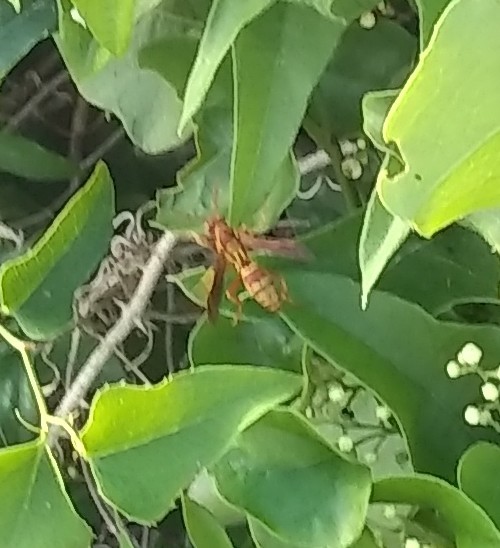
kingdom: Animalia
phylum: Arthropoda
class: Insecta
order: Hymenoptera
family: Eumenidae
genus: Polistes
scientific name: Polistes
